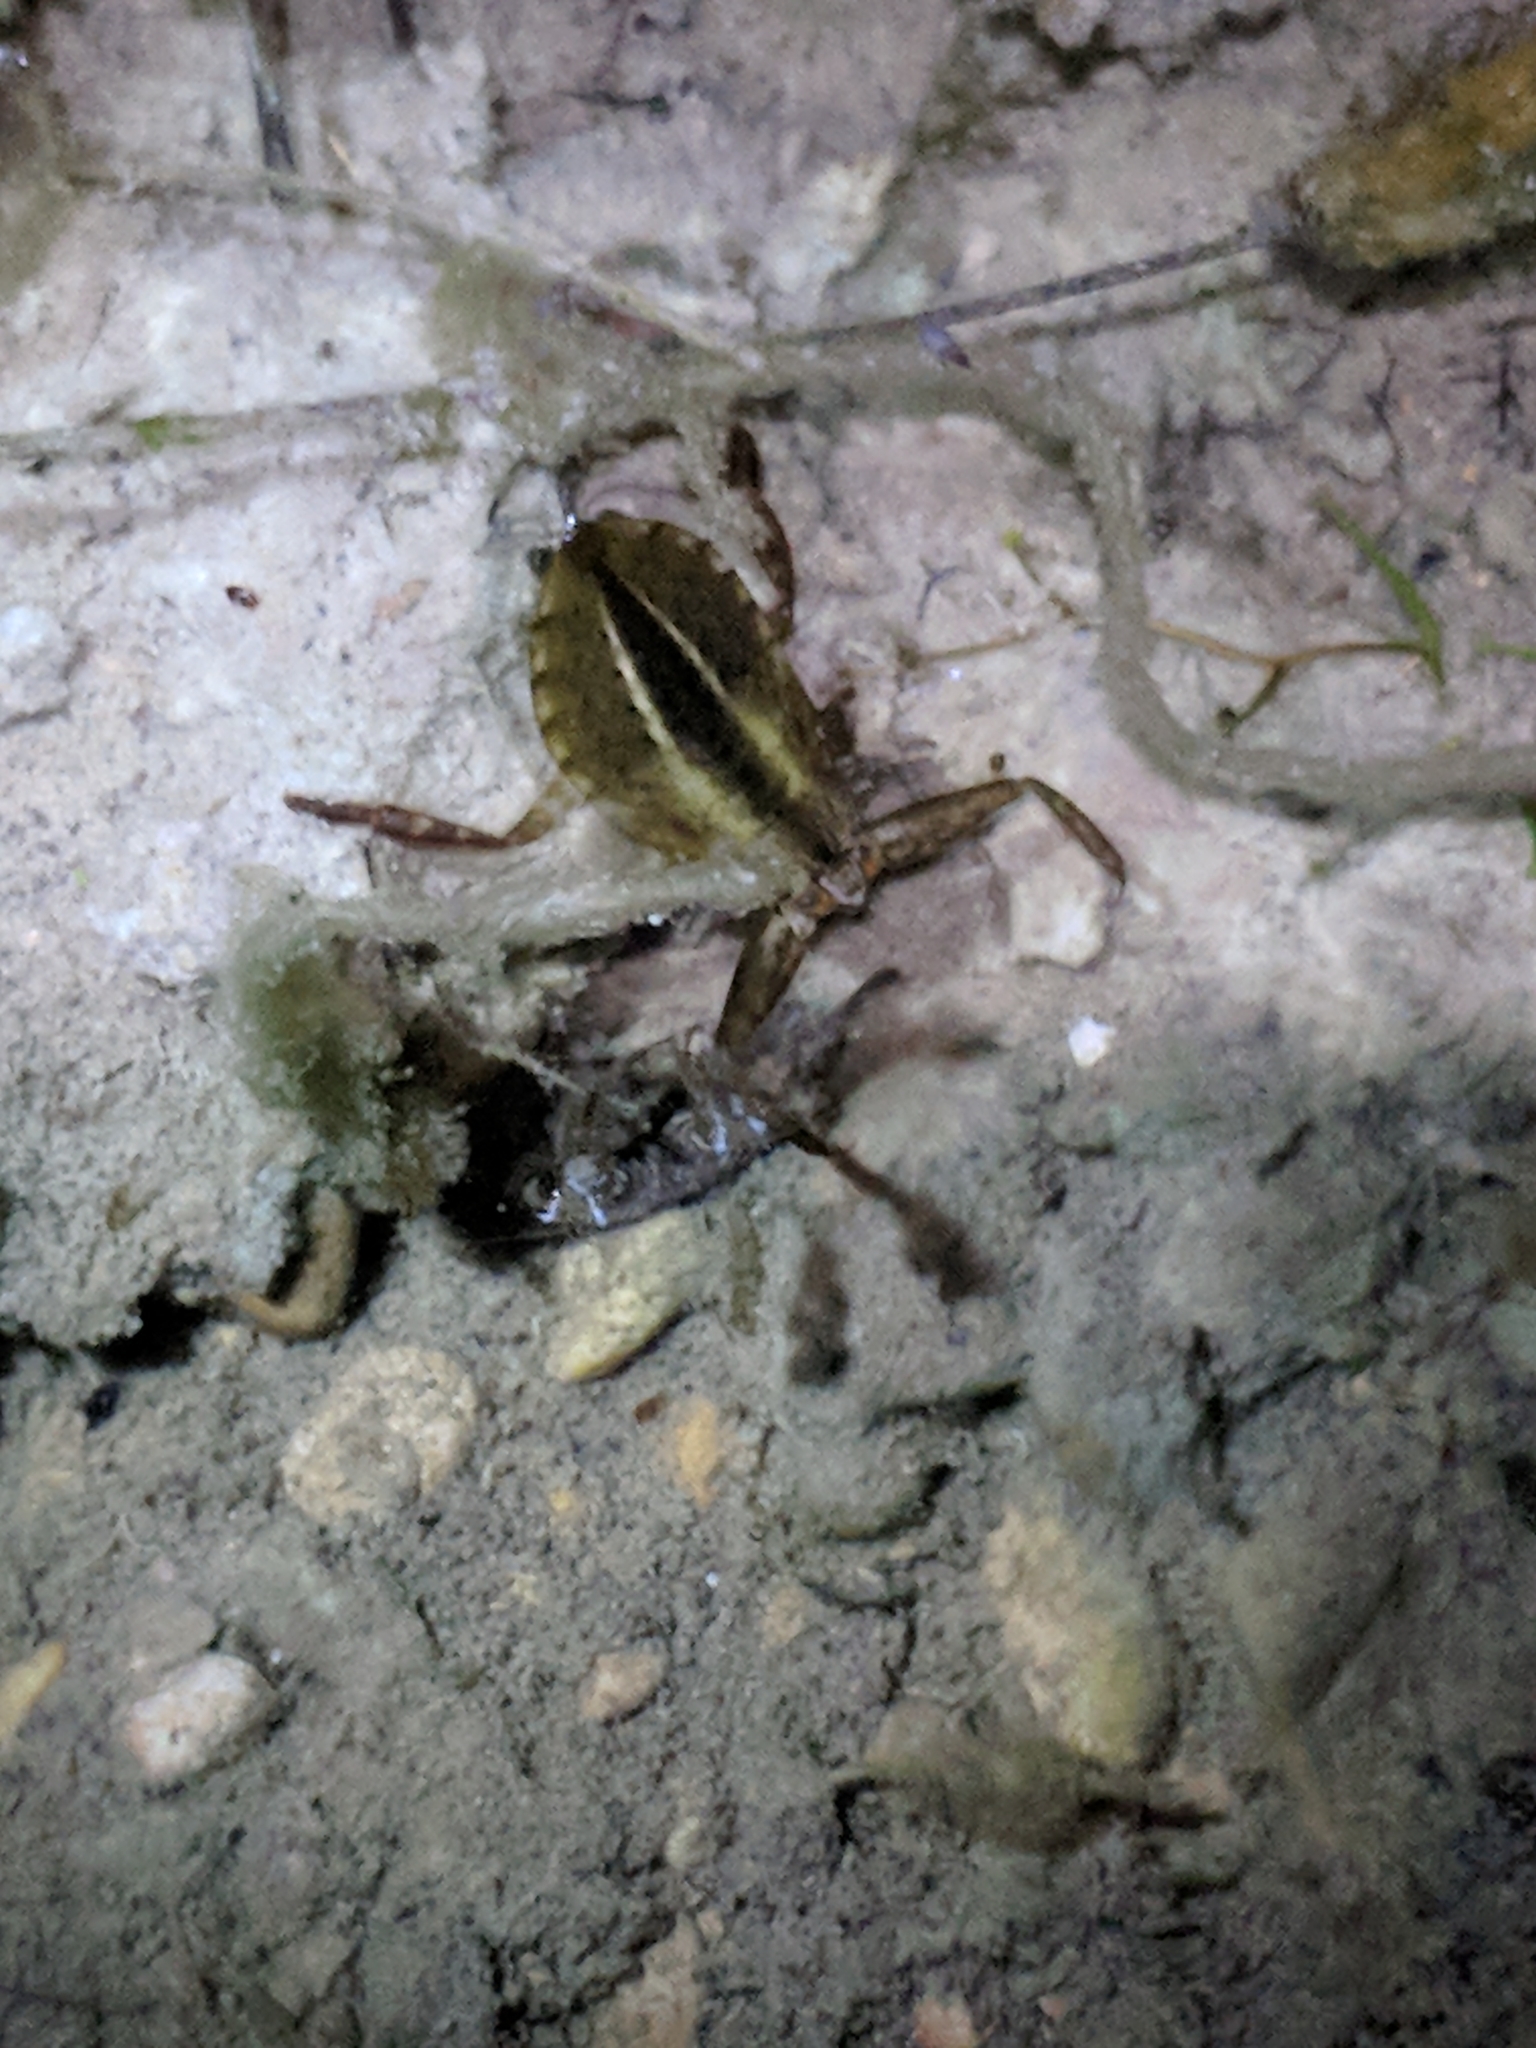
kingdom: Animalia
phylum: Arthropoda
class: Insecta
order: Hemiptera
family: Belostomatidae
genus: Lethocerus
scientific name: Lethocerus
